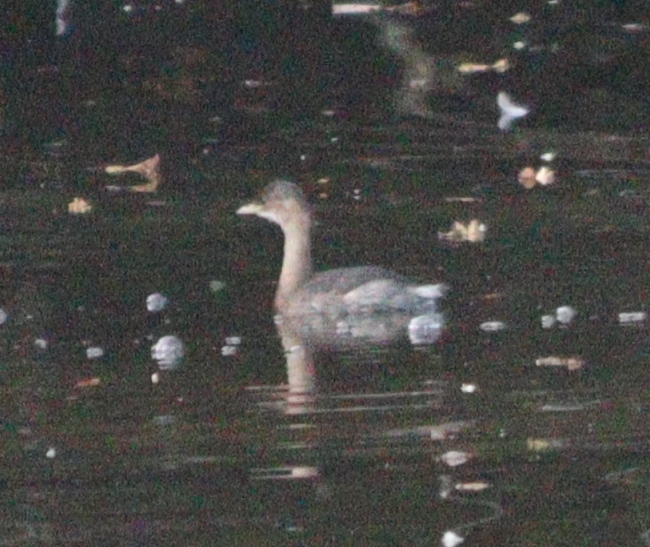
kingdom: Animalia
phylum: Chordata
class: Aves
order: Podicipediformes
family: Podicipedidae
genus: Tachybaptus
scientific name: Tachybaptus ruficollis
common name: Little grebe
